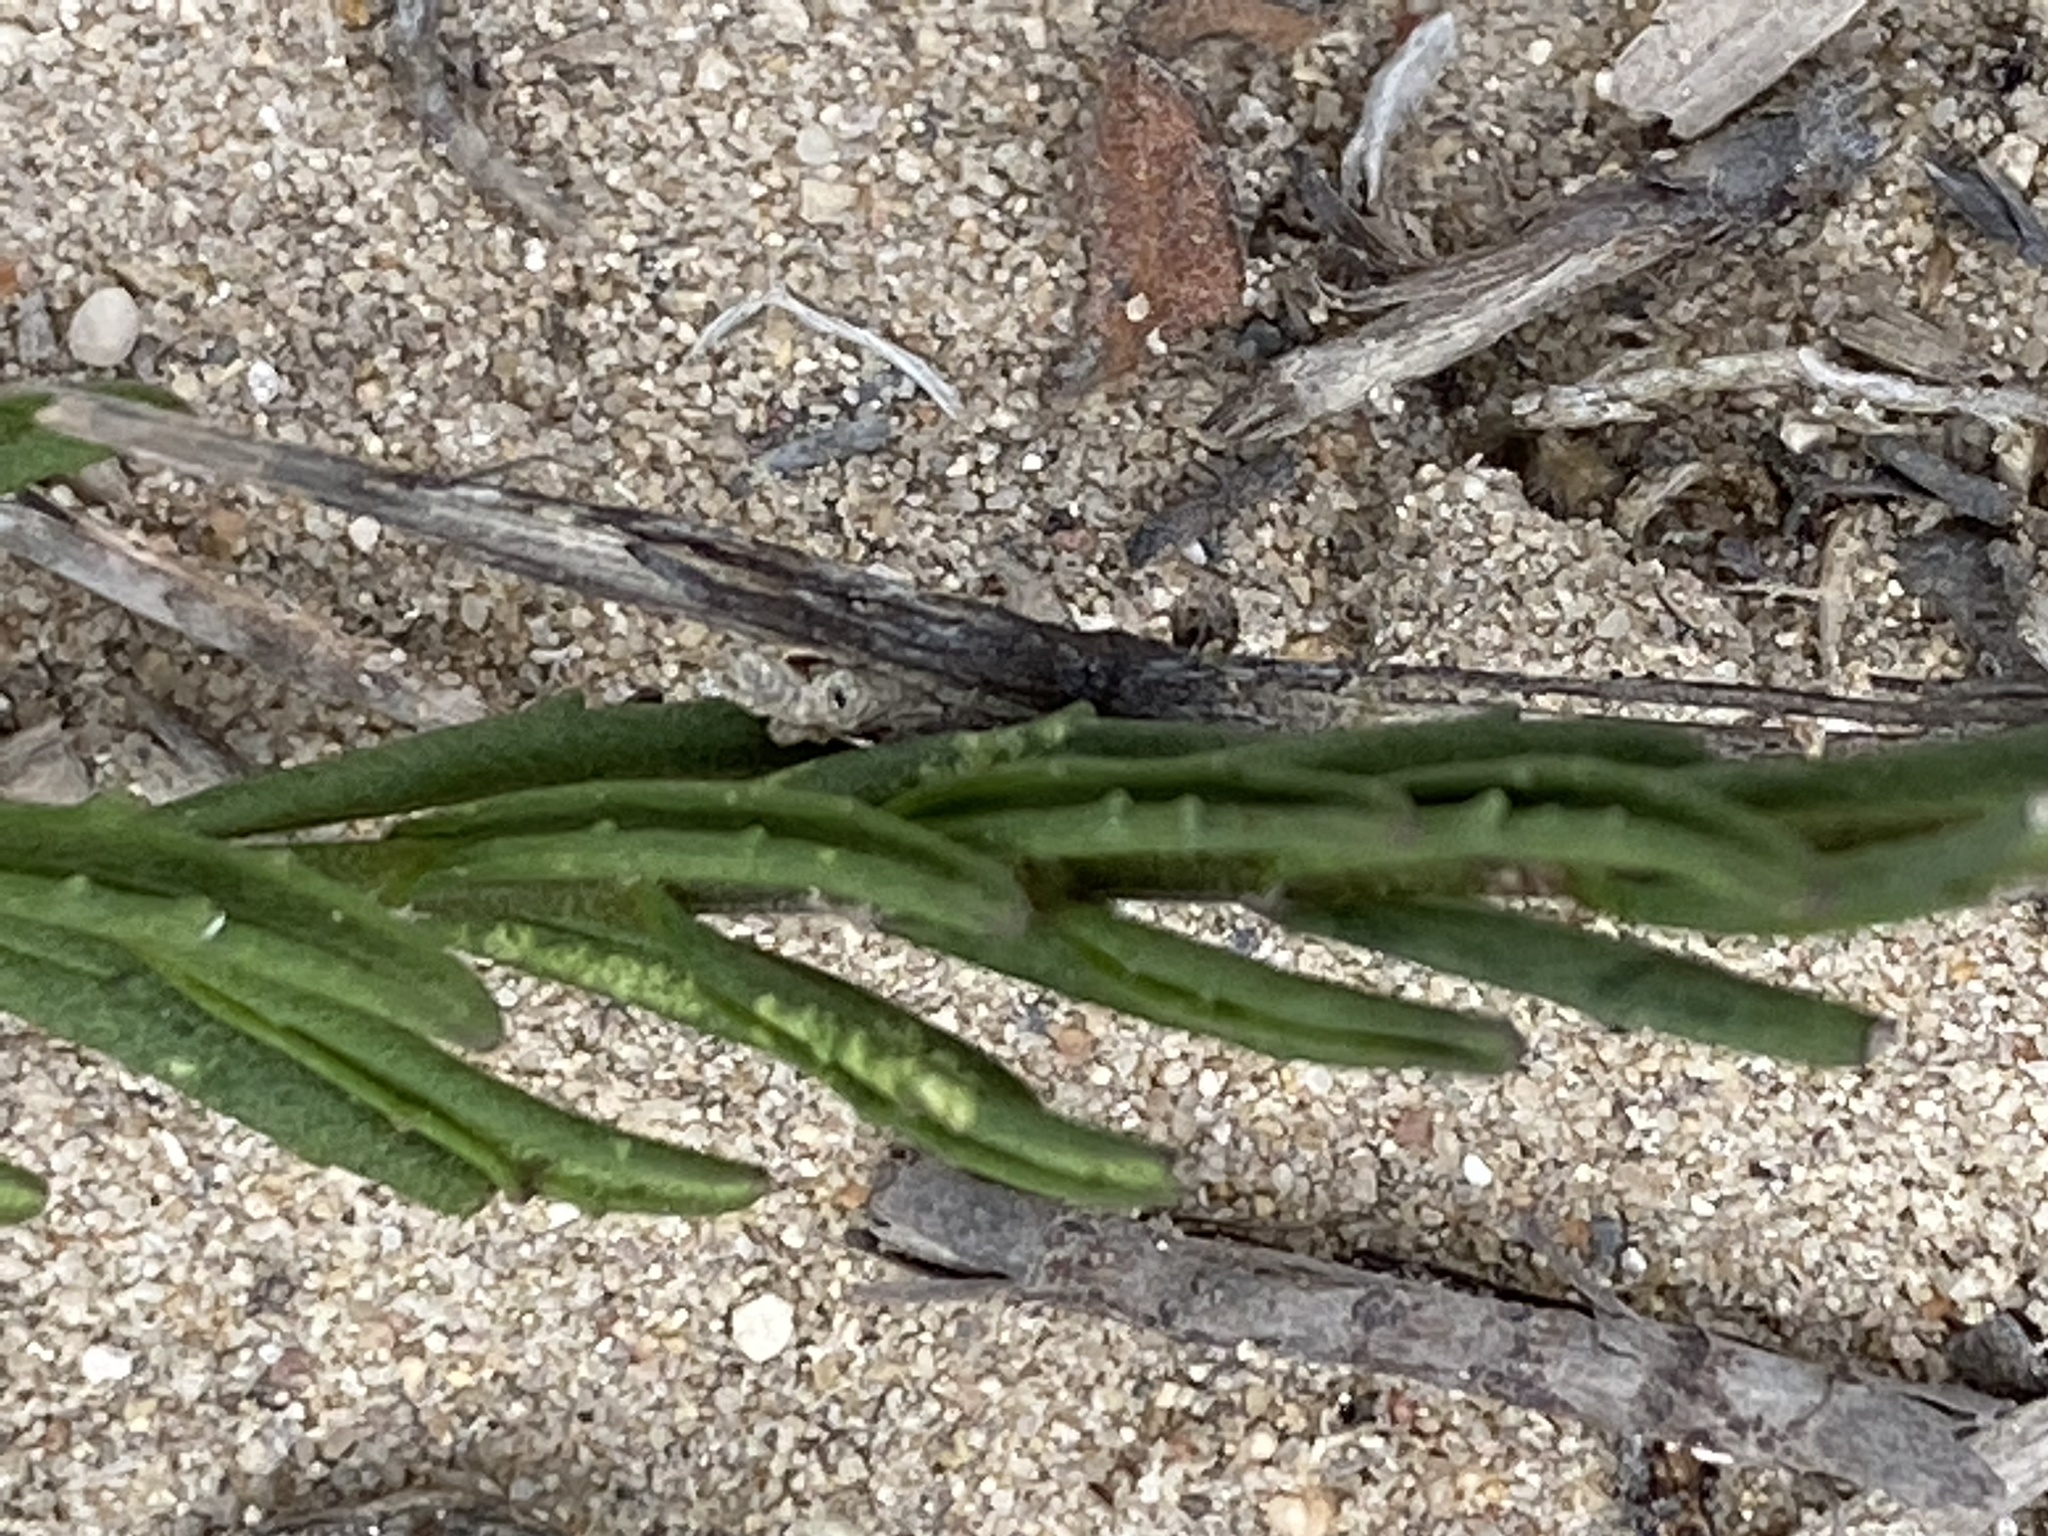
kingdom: Plantae
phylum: Tracheophyta
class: Magnoliopsida
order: Lamiales
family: Scrophulariaceae
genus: Chaenostoma
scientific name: Chaenostoma placidum
